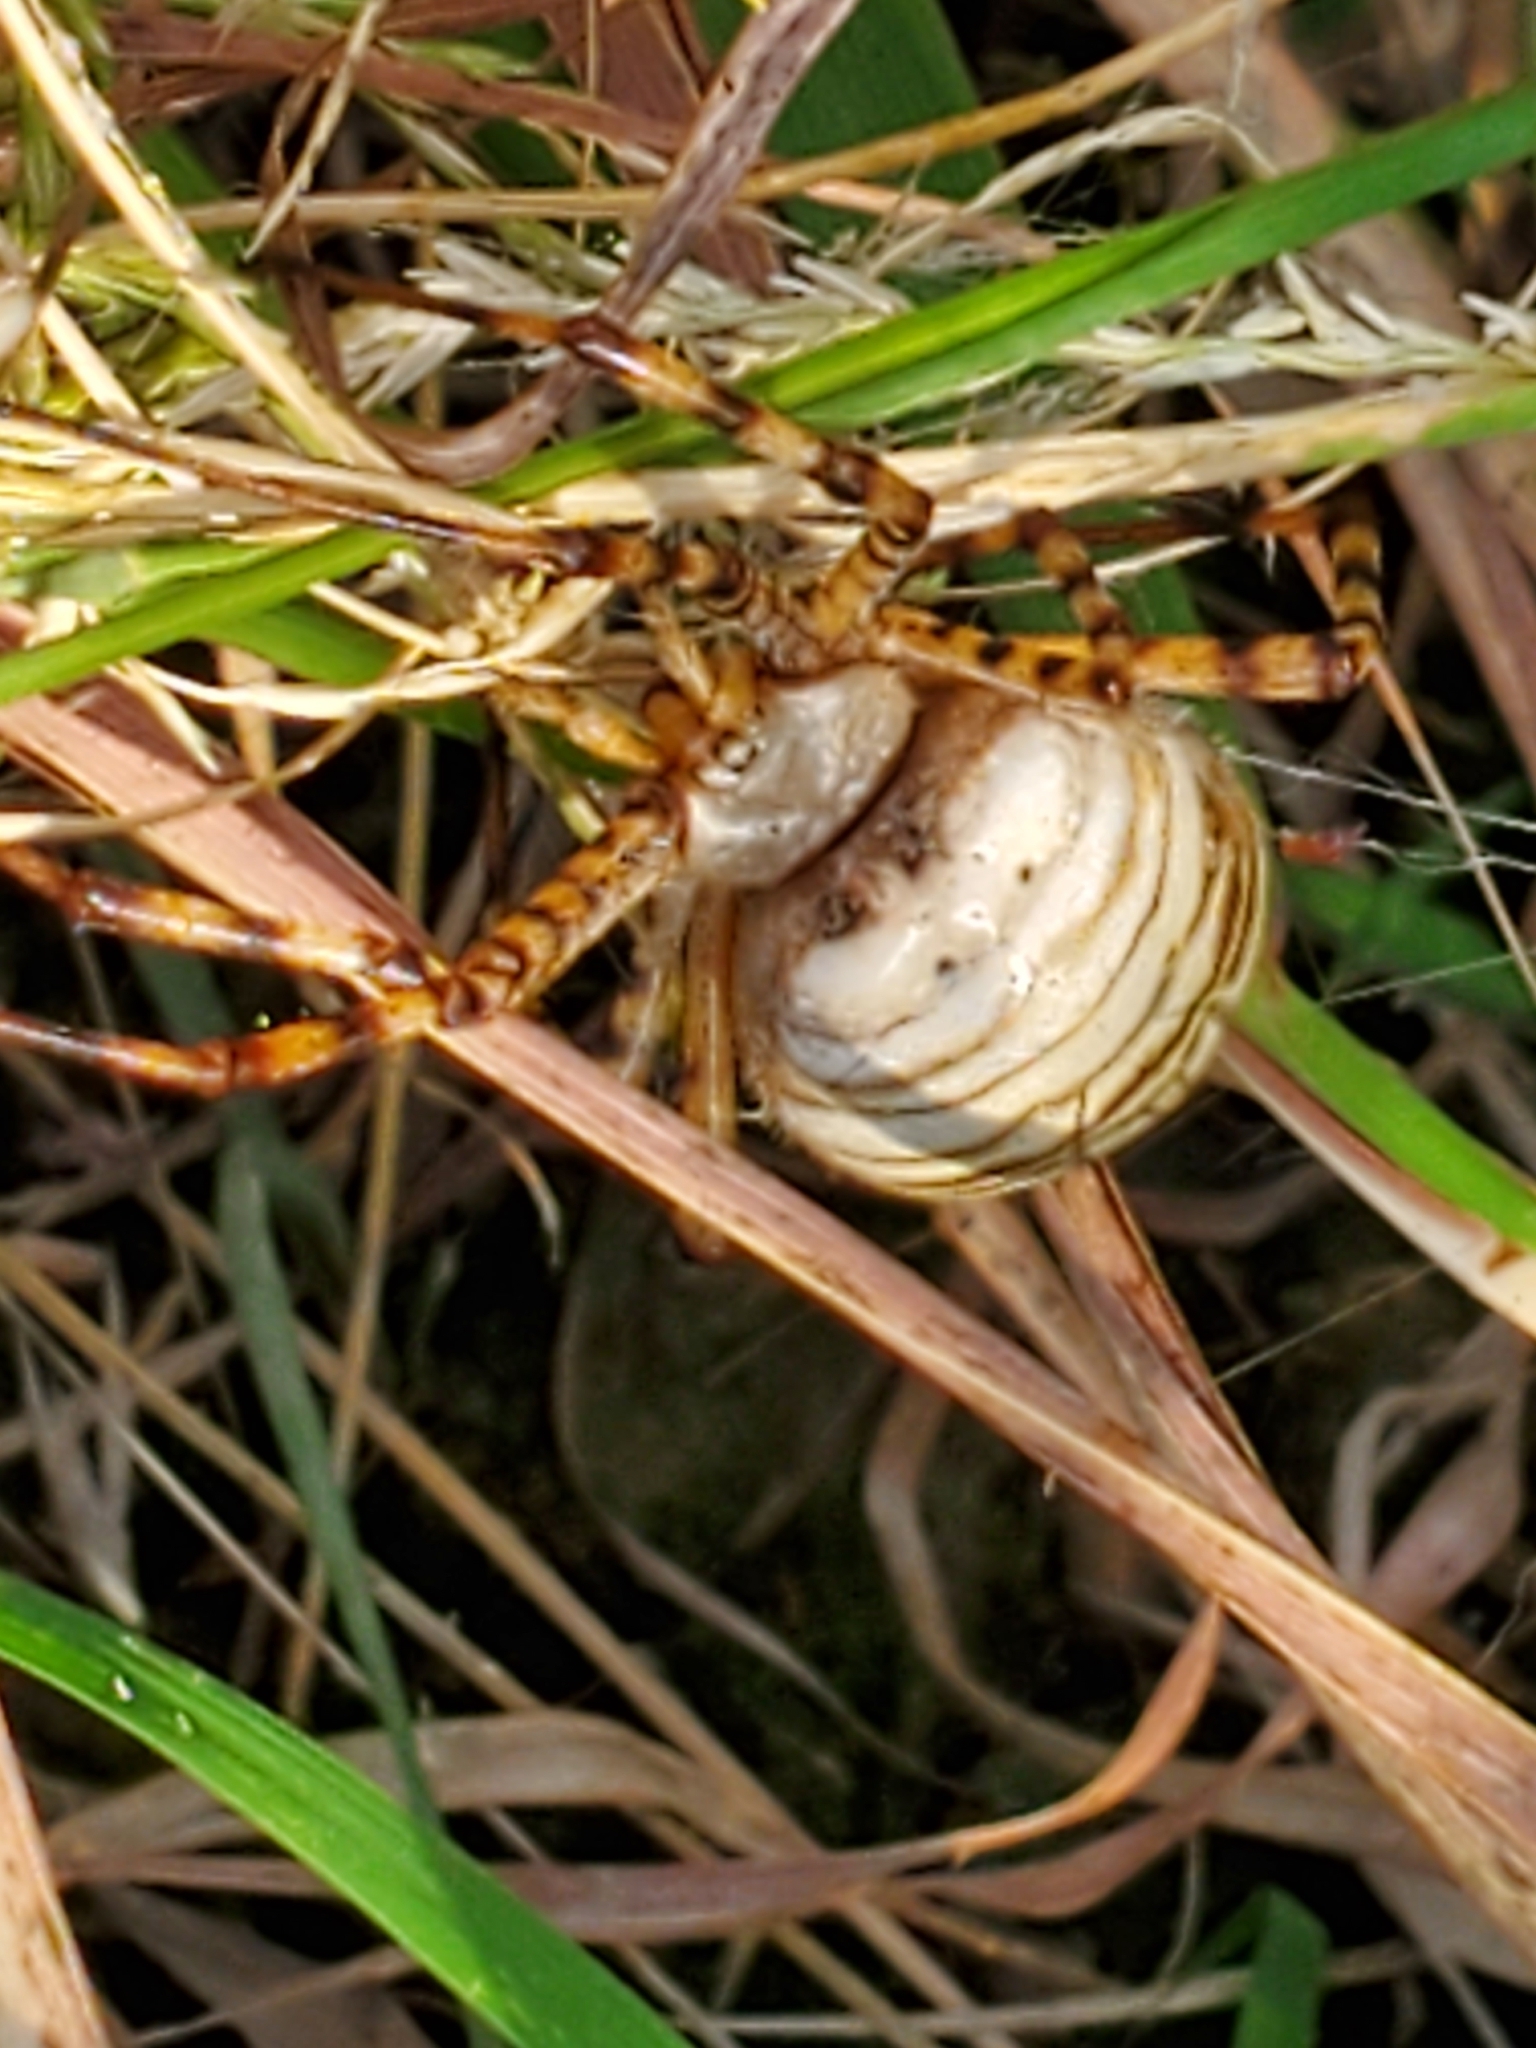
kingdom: Animalia
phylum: Arthropoda
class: Arachnida
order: Araneae
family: Araneidae
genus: Argiope
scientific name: Argiope trifasciata
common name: Banded garden spider
